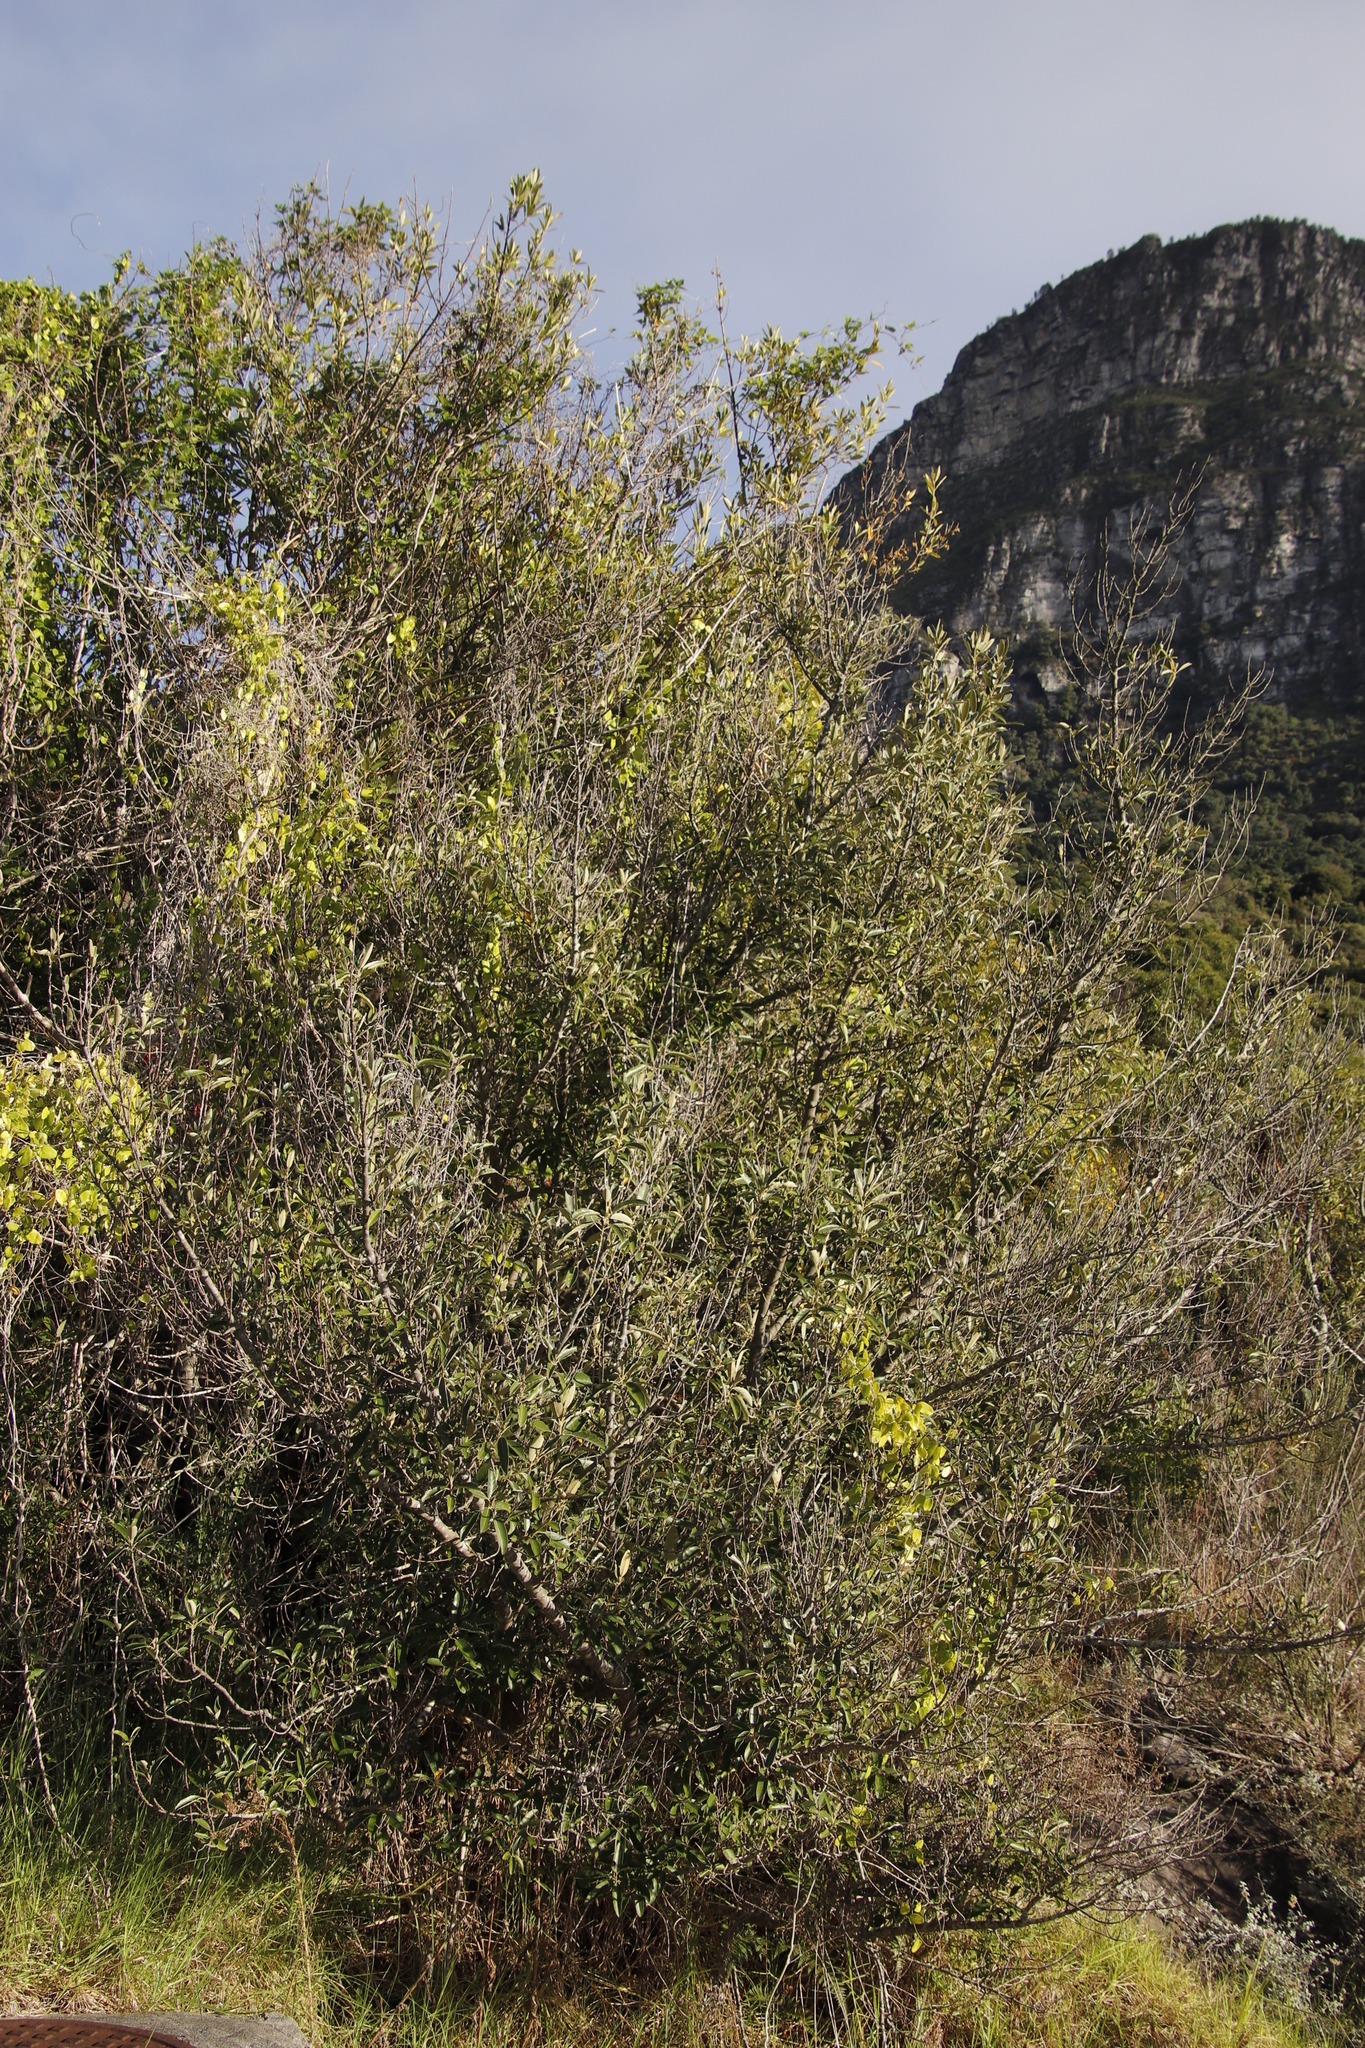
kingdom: Plantae
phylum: Tracheophyta
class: Magnoliopsida
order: Malpighiales
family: Achariaceae
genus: Kiggelaria
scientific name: Kiggelaria africana
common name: Wild peach
